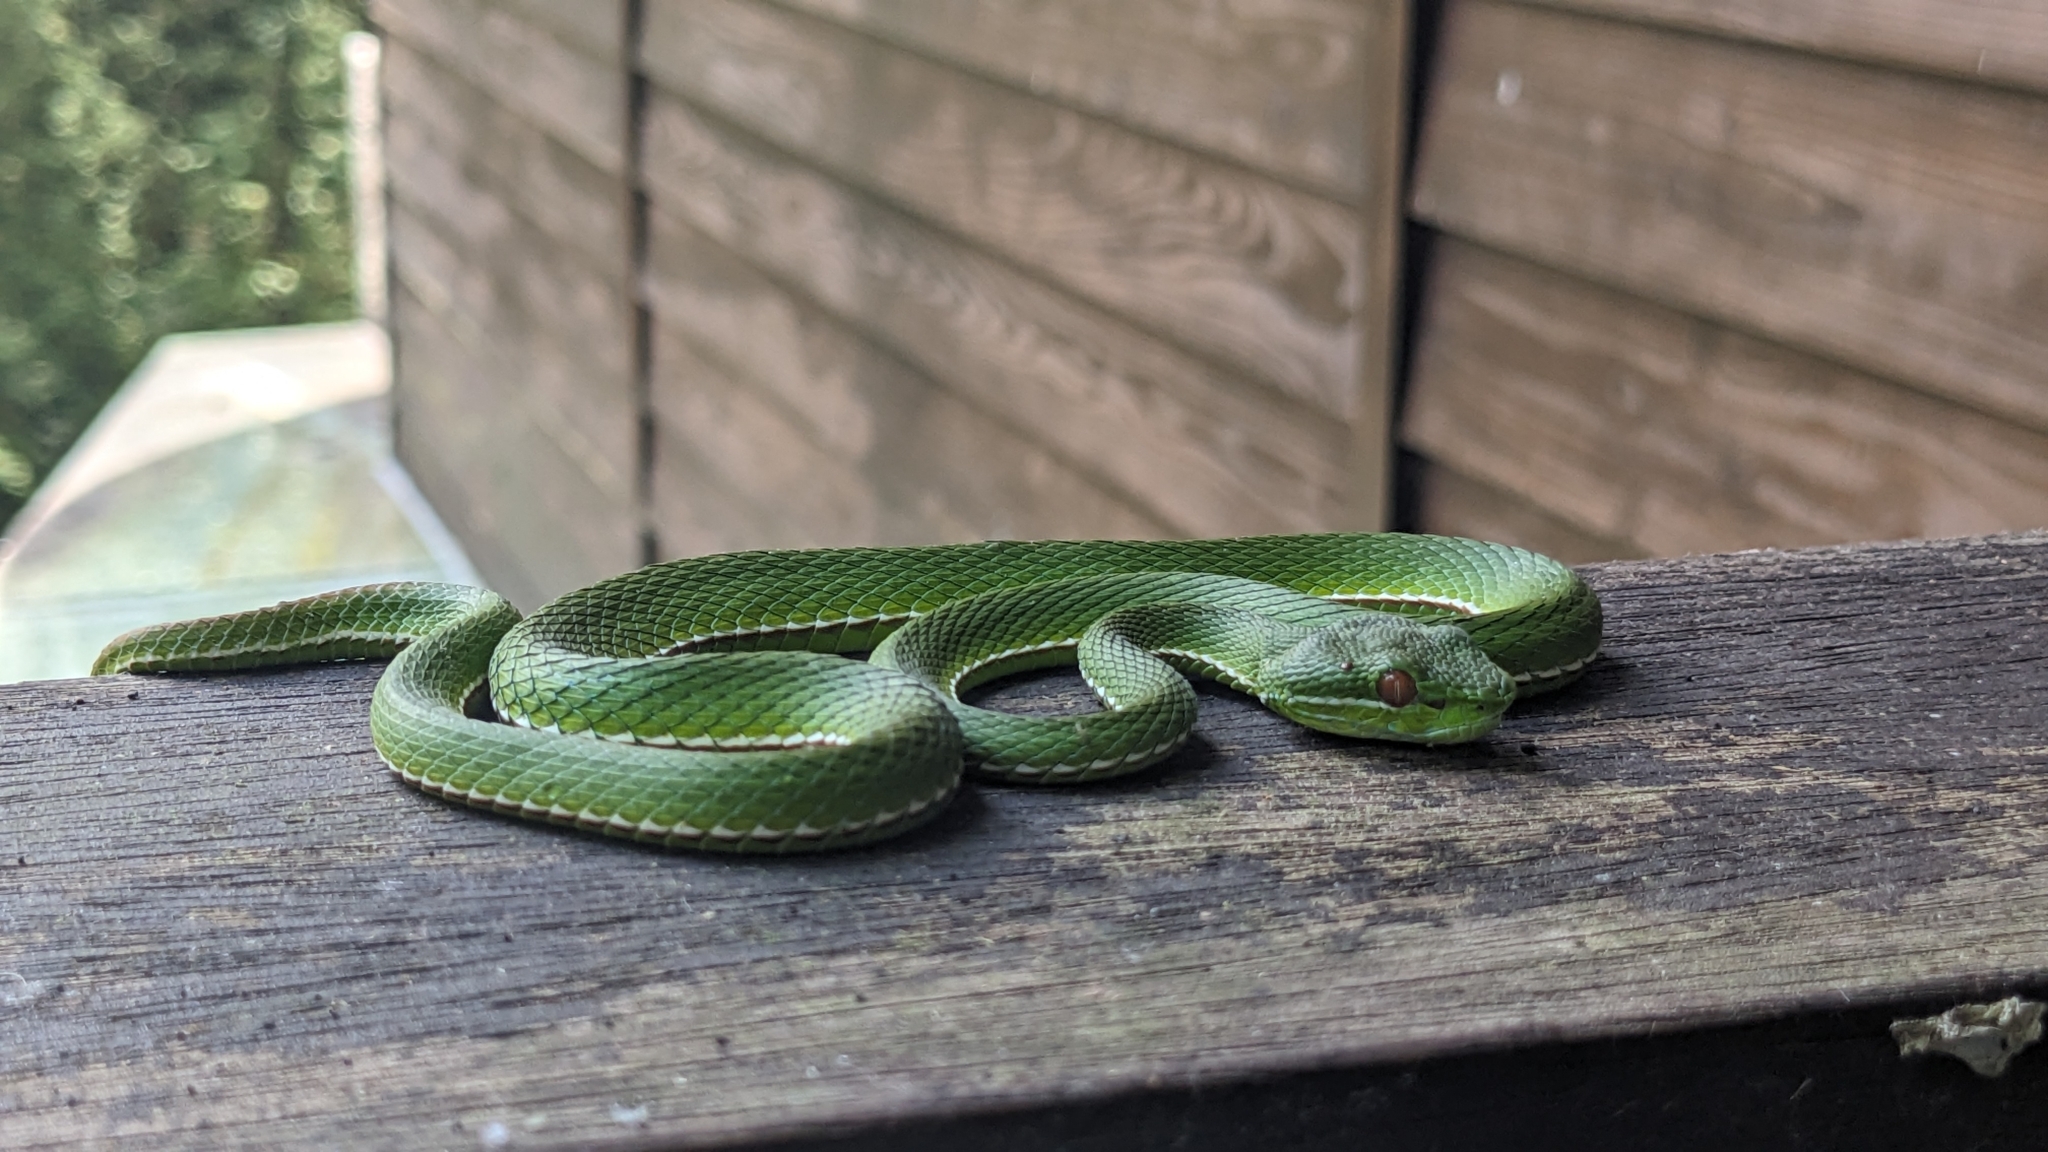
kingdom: Animalia
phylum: Chordata
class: Squamata
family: Viperidae
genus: Trimeresurus
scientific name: Trimeresurus stejnegeri
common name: Chen’s bamboo pit viper
